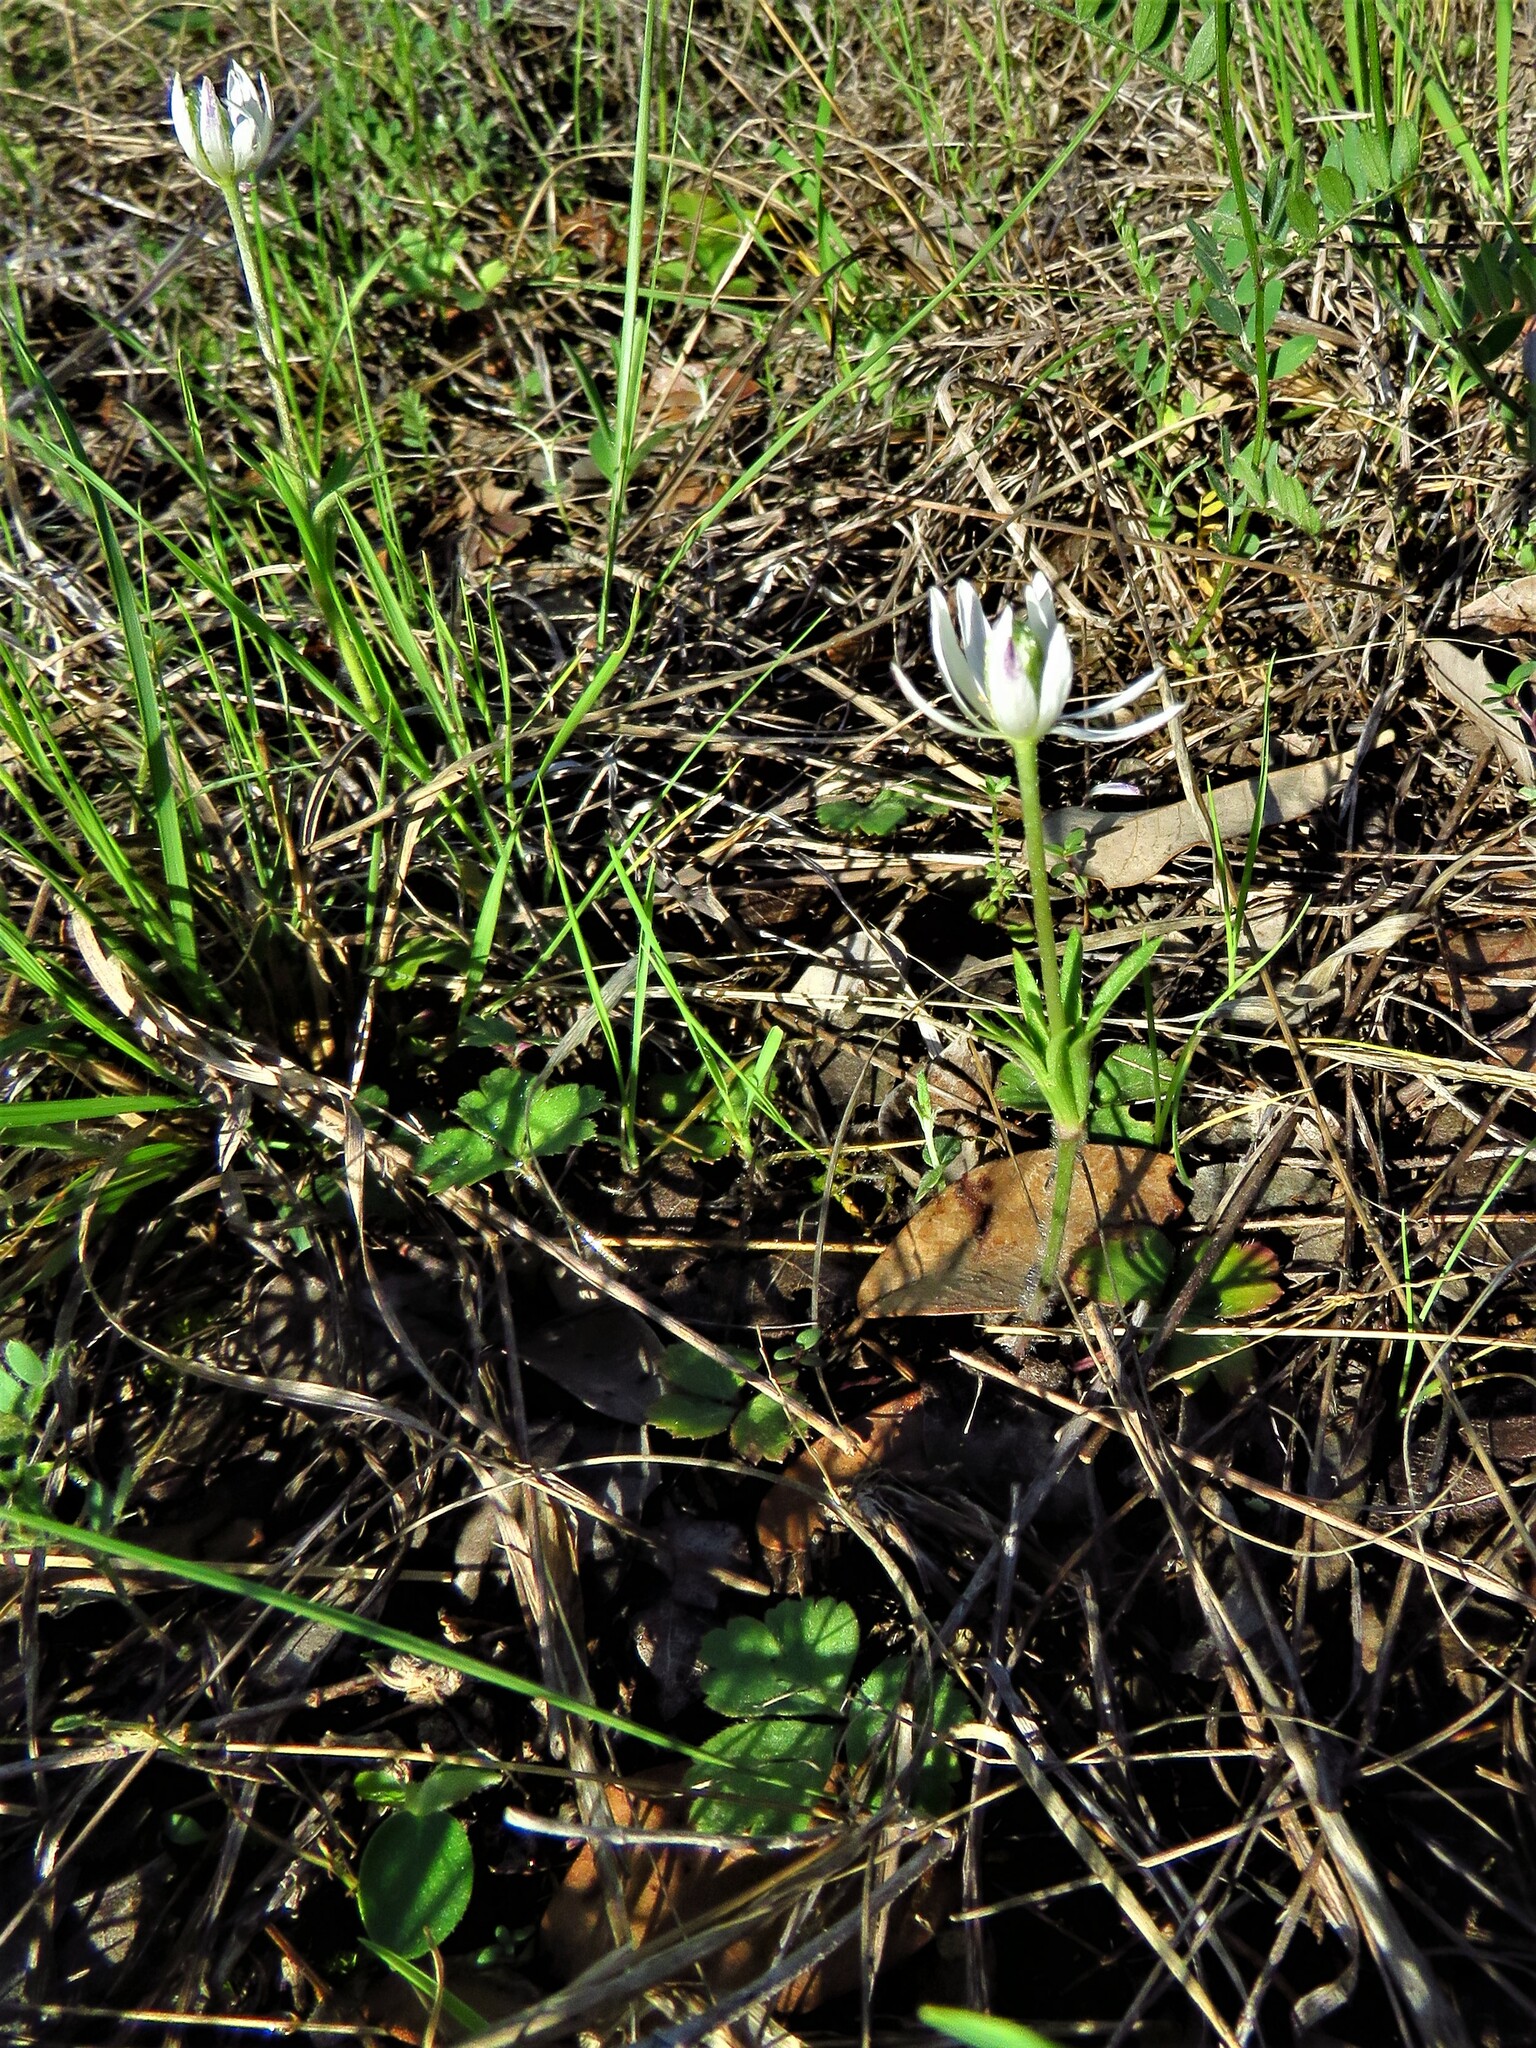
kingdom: Plantae
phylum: Tracheophyta
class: Magnoliopsida
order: Ranunculales
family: Ranunculaceae
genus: Anemone
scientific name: Anemone berlandieri
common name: Ten-petal anemone
